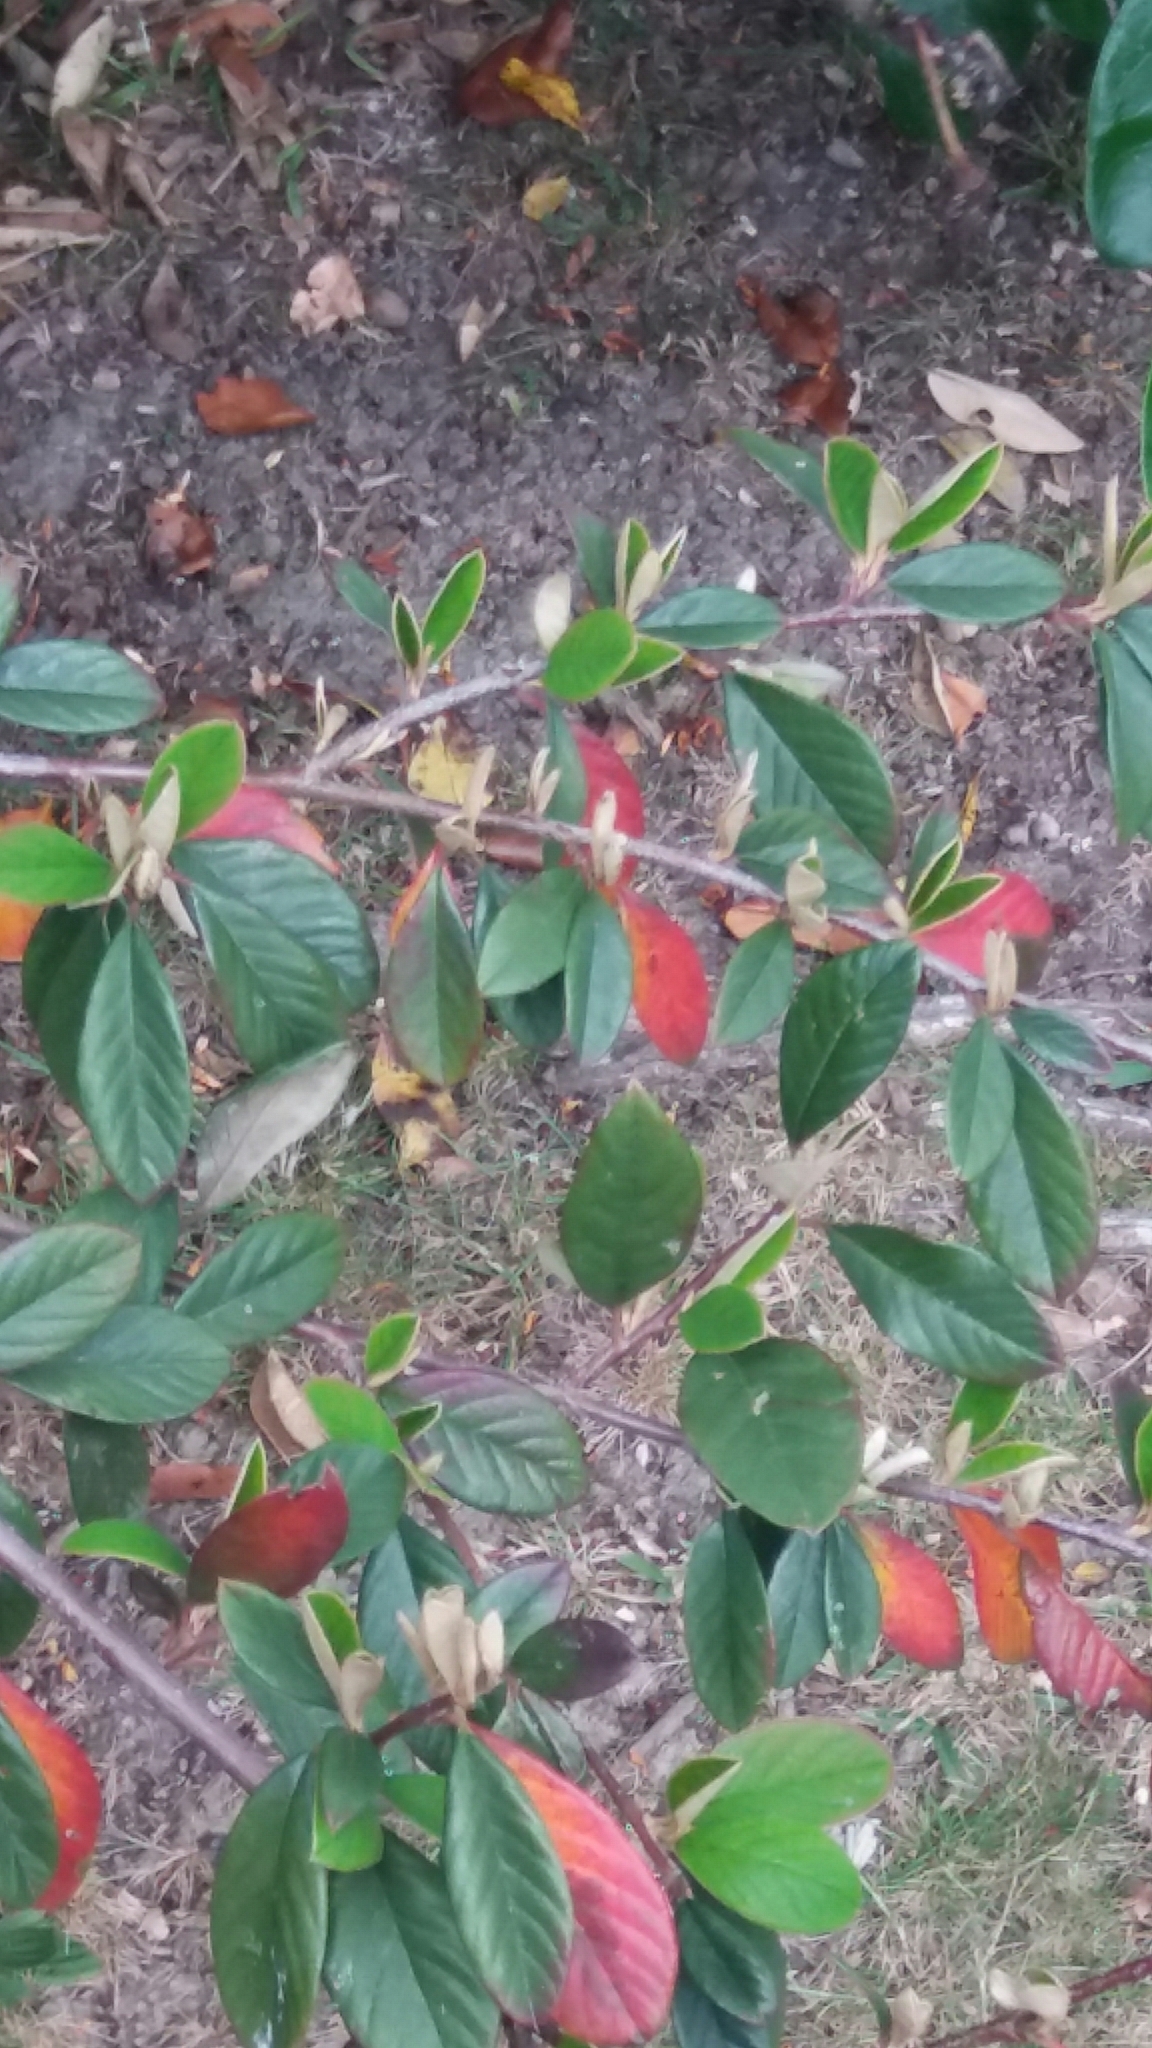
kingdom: Plantae
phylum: Tracheophyta
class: Magnoliopsida
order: Rosales
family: Rosaceae
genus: Cotoneaster
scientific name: Cotoneaster glaucophyllus
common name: Glaucous cotoneaster
